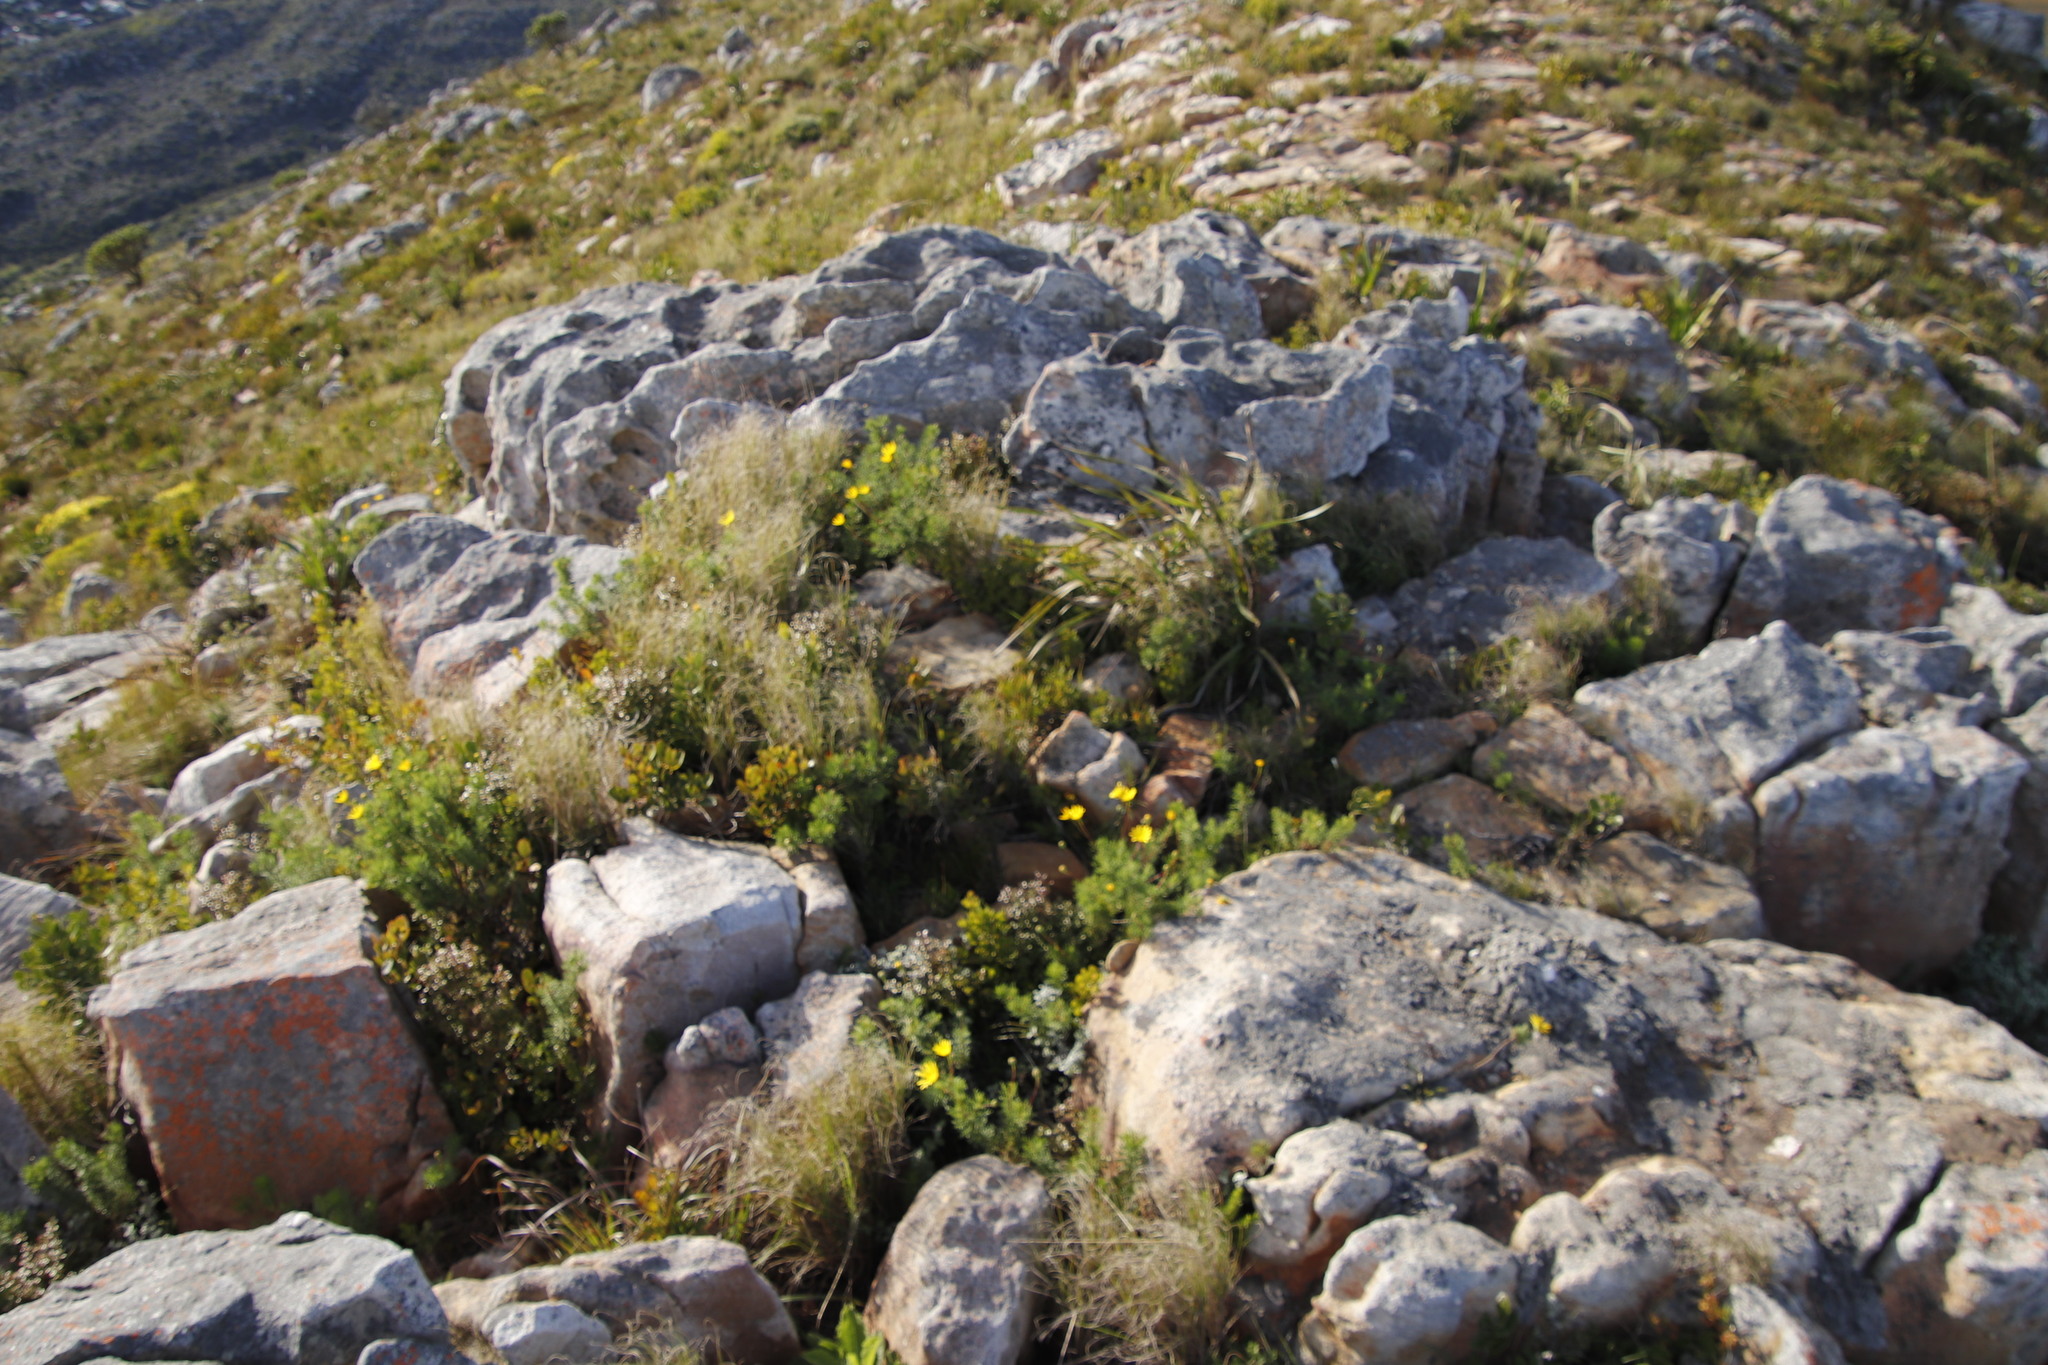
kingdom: Plantae
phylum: Tracheophyta
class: Magnoliopsida
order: Asterales
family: Asteraceae
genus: Euryops
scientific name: Euryops abrotanifolius
